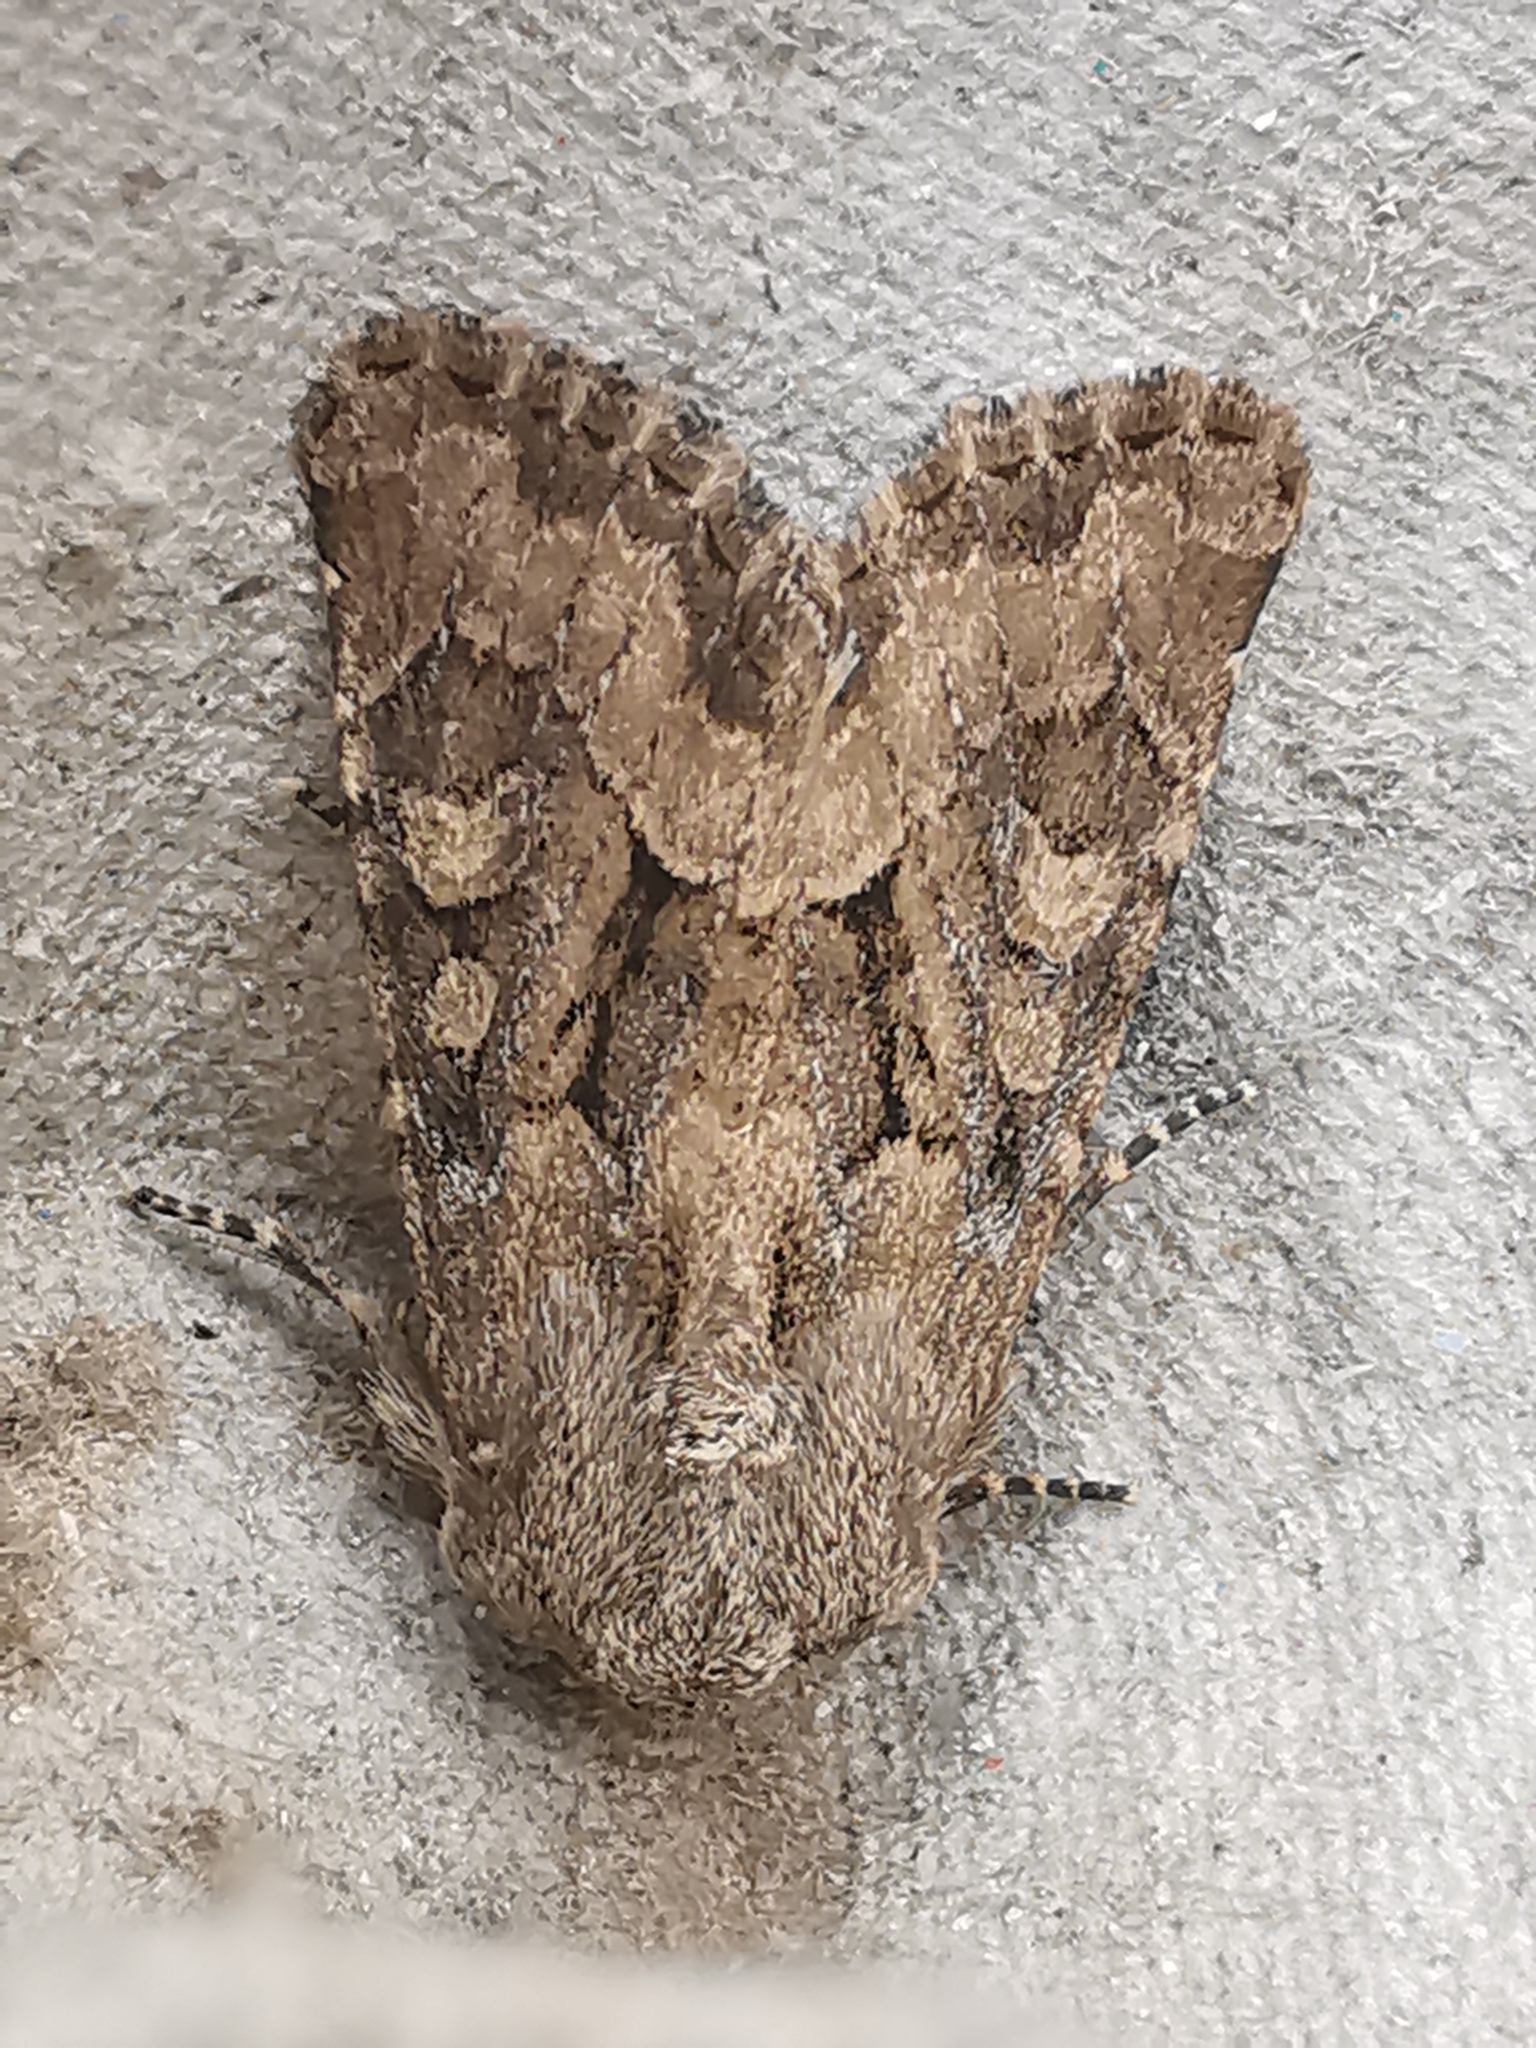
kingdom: Animalia
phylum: Arthropoda
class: Insecta
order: Lepidoptera
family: Noctuidae
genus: Luperina
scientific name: Luperina testacea
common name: Flounced rustic
